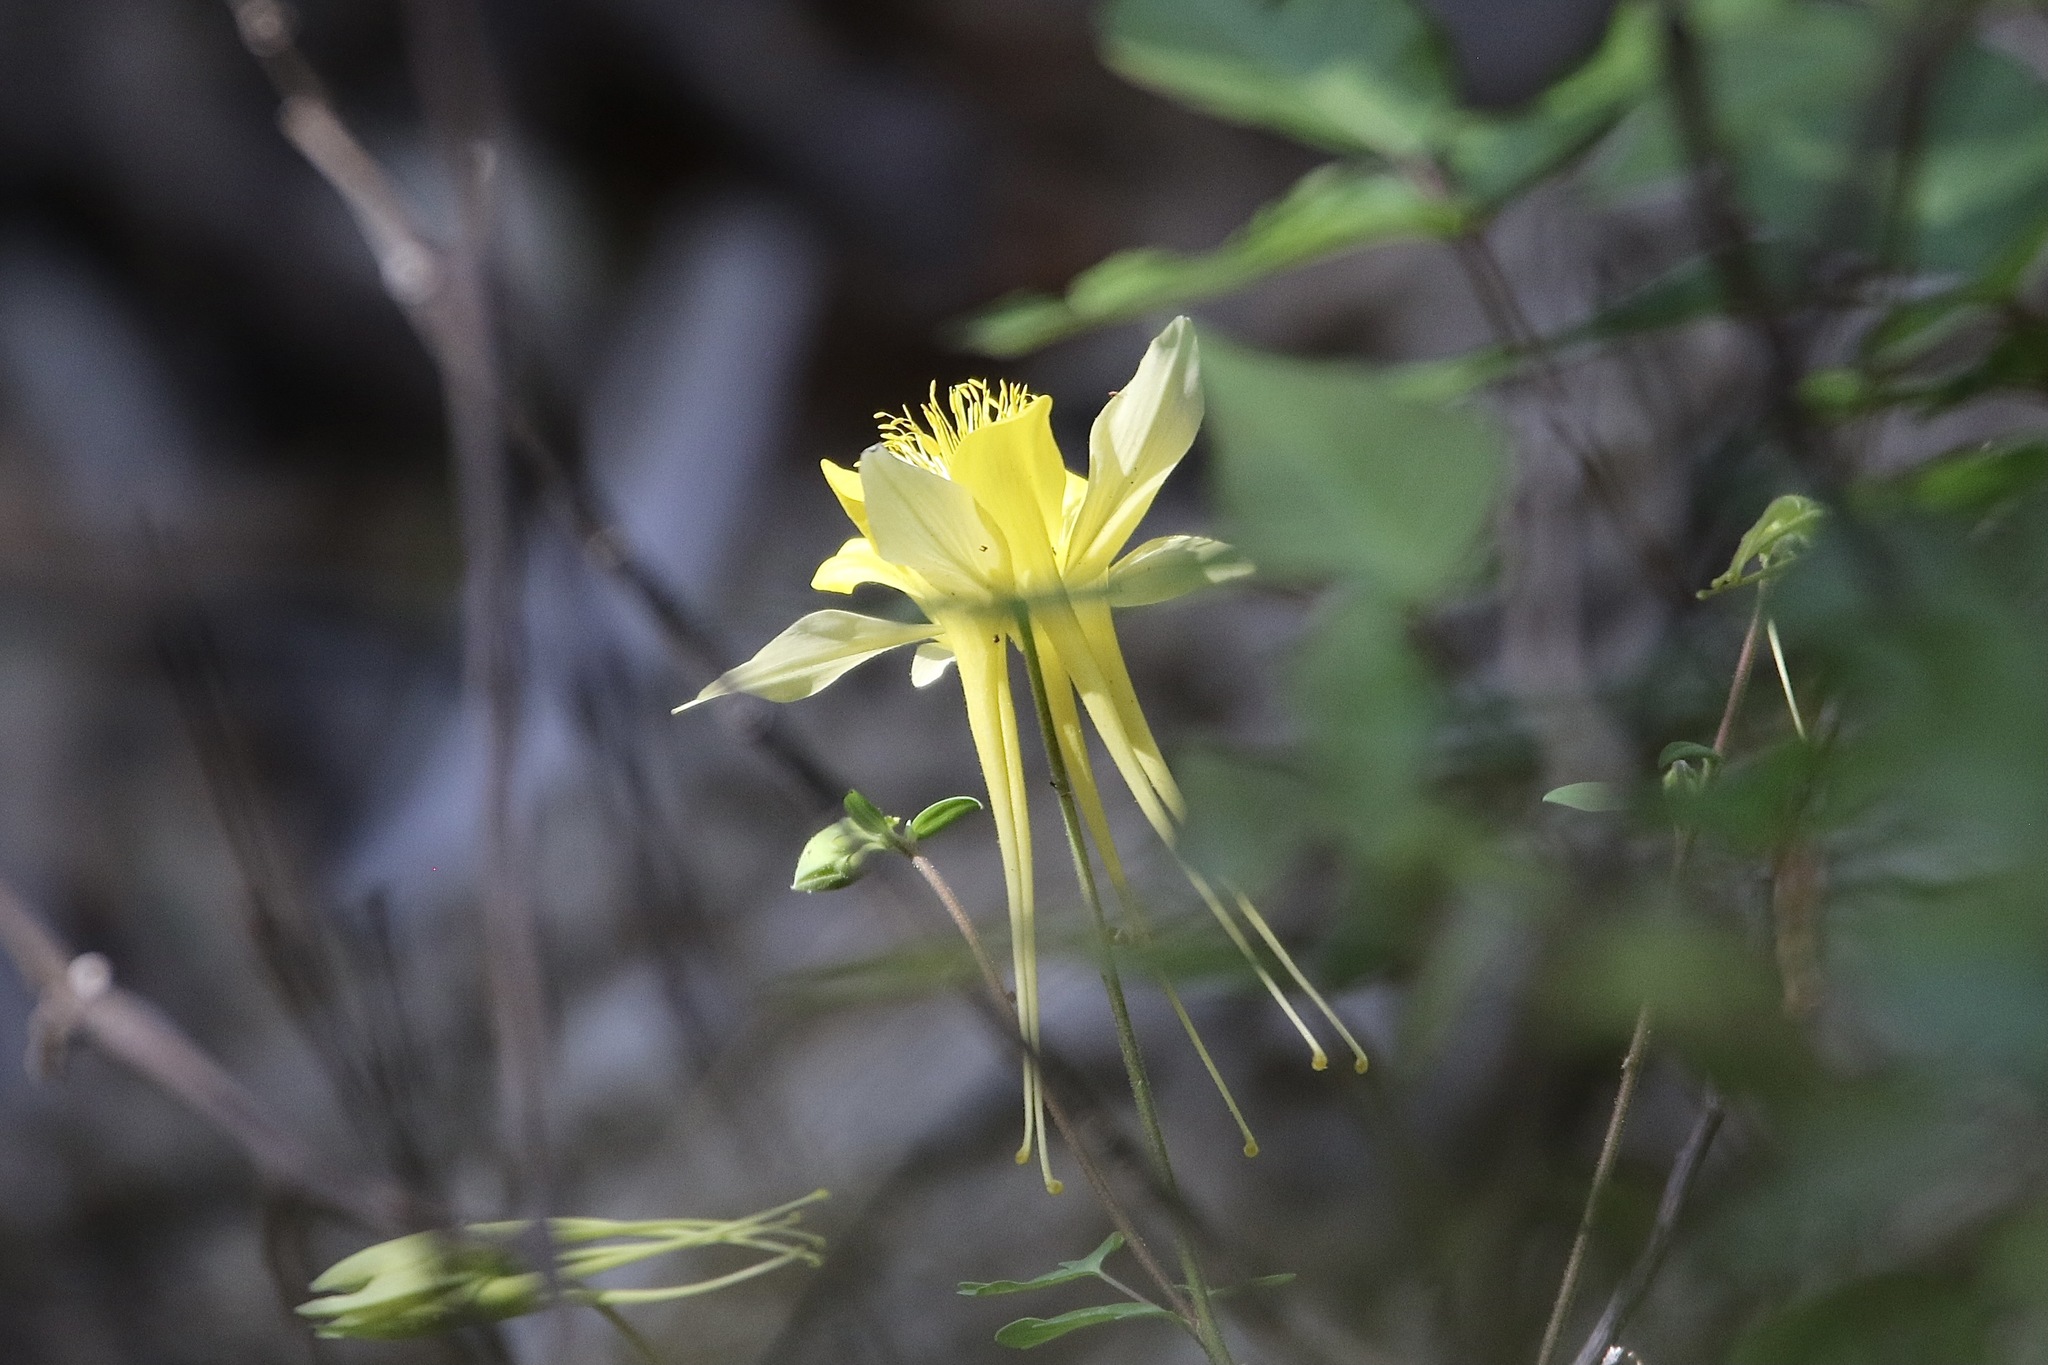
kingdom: Plantae
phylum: Tracheophyta
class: Magnoliopsida
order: Ranunculales
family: Ranunculaceae
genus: Aquilegia
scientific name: Aquilegia chrysantha
